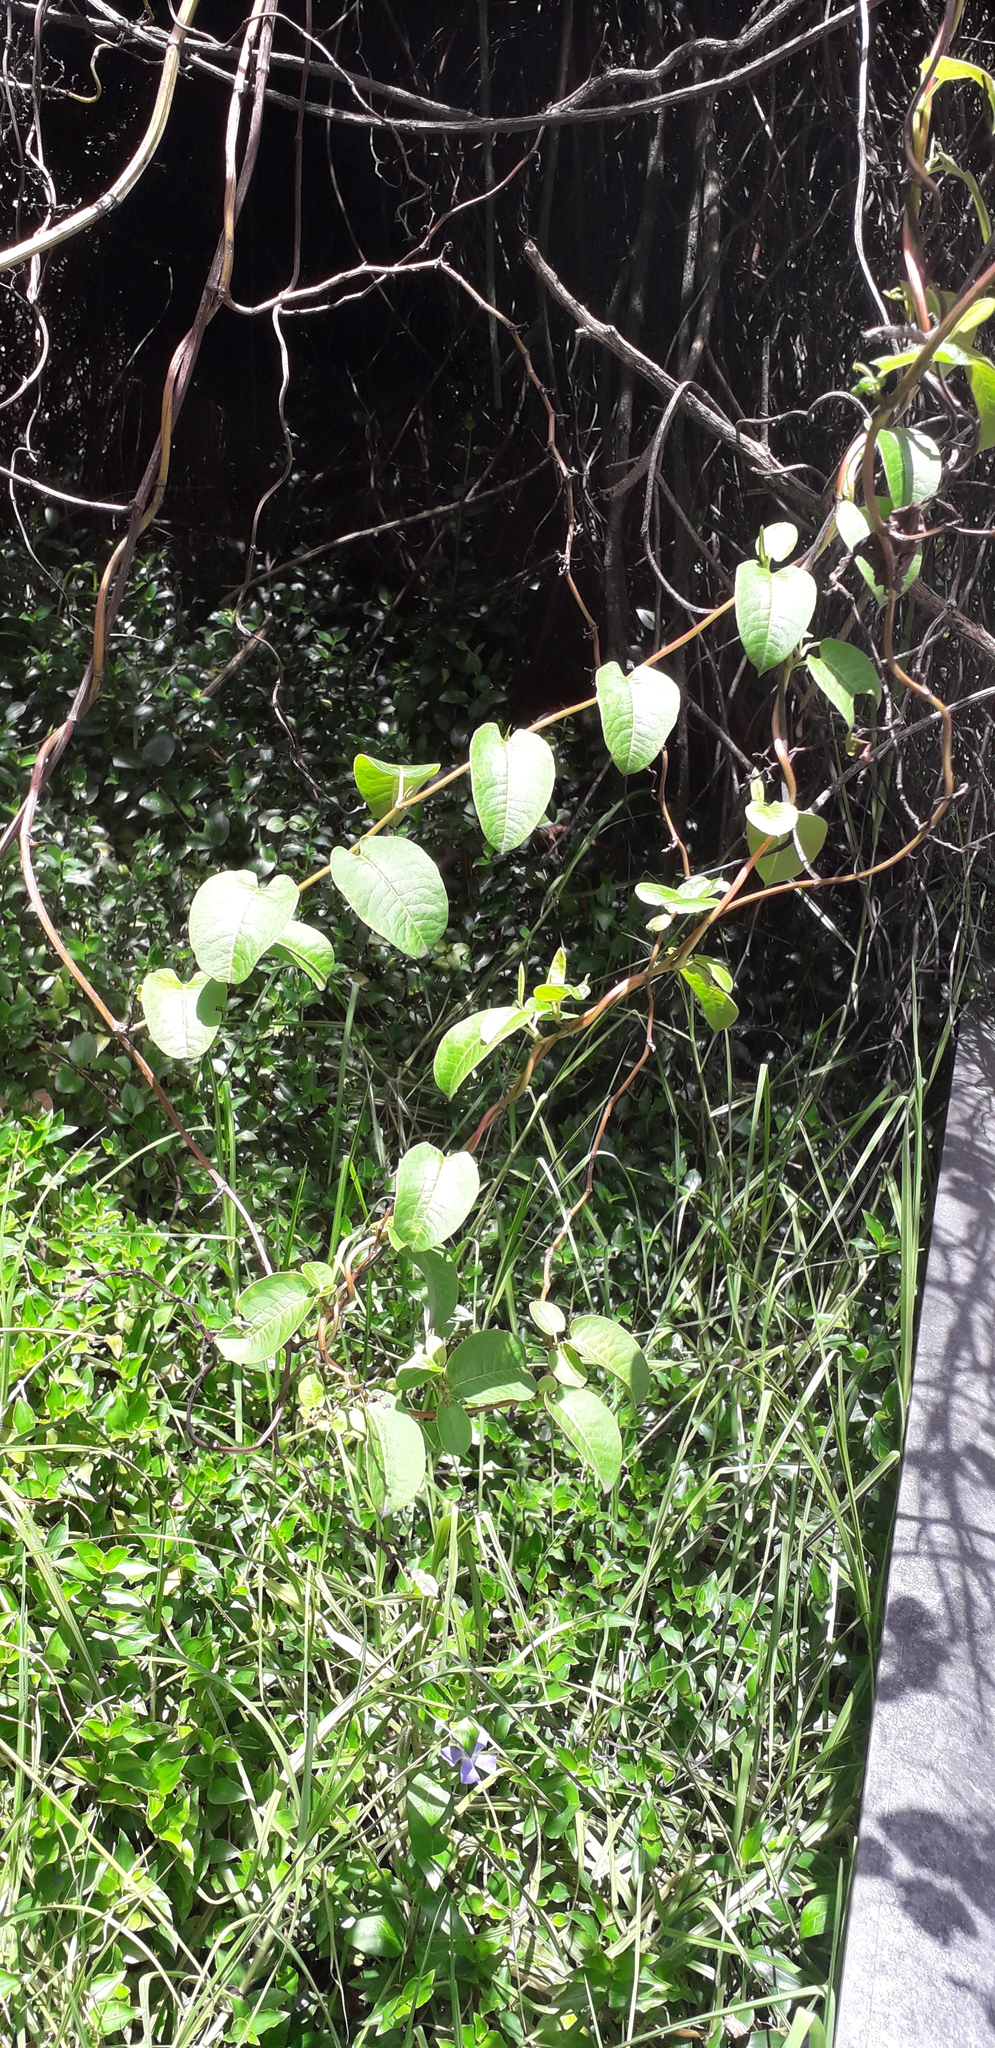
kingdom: Plantae
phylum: Tracheophyta
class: Magnoliopsida
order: Caryophyllales
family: Polygonaceae
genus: Muehlenbeckia
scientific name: Muehlenbeckia tamnifolia
